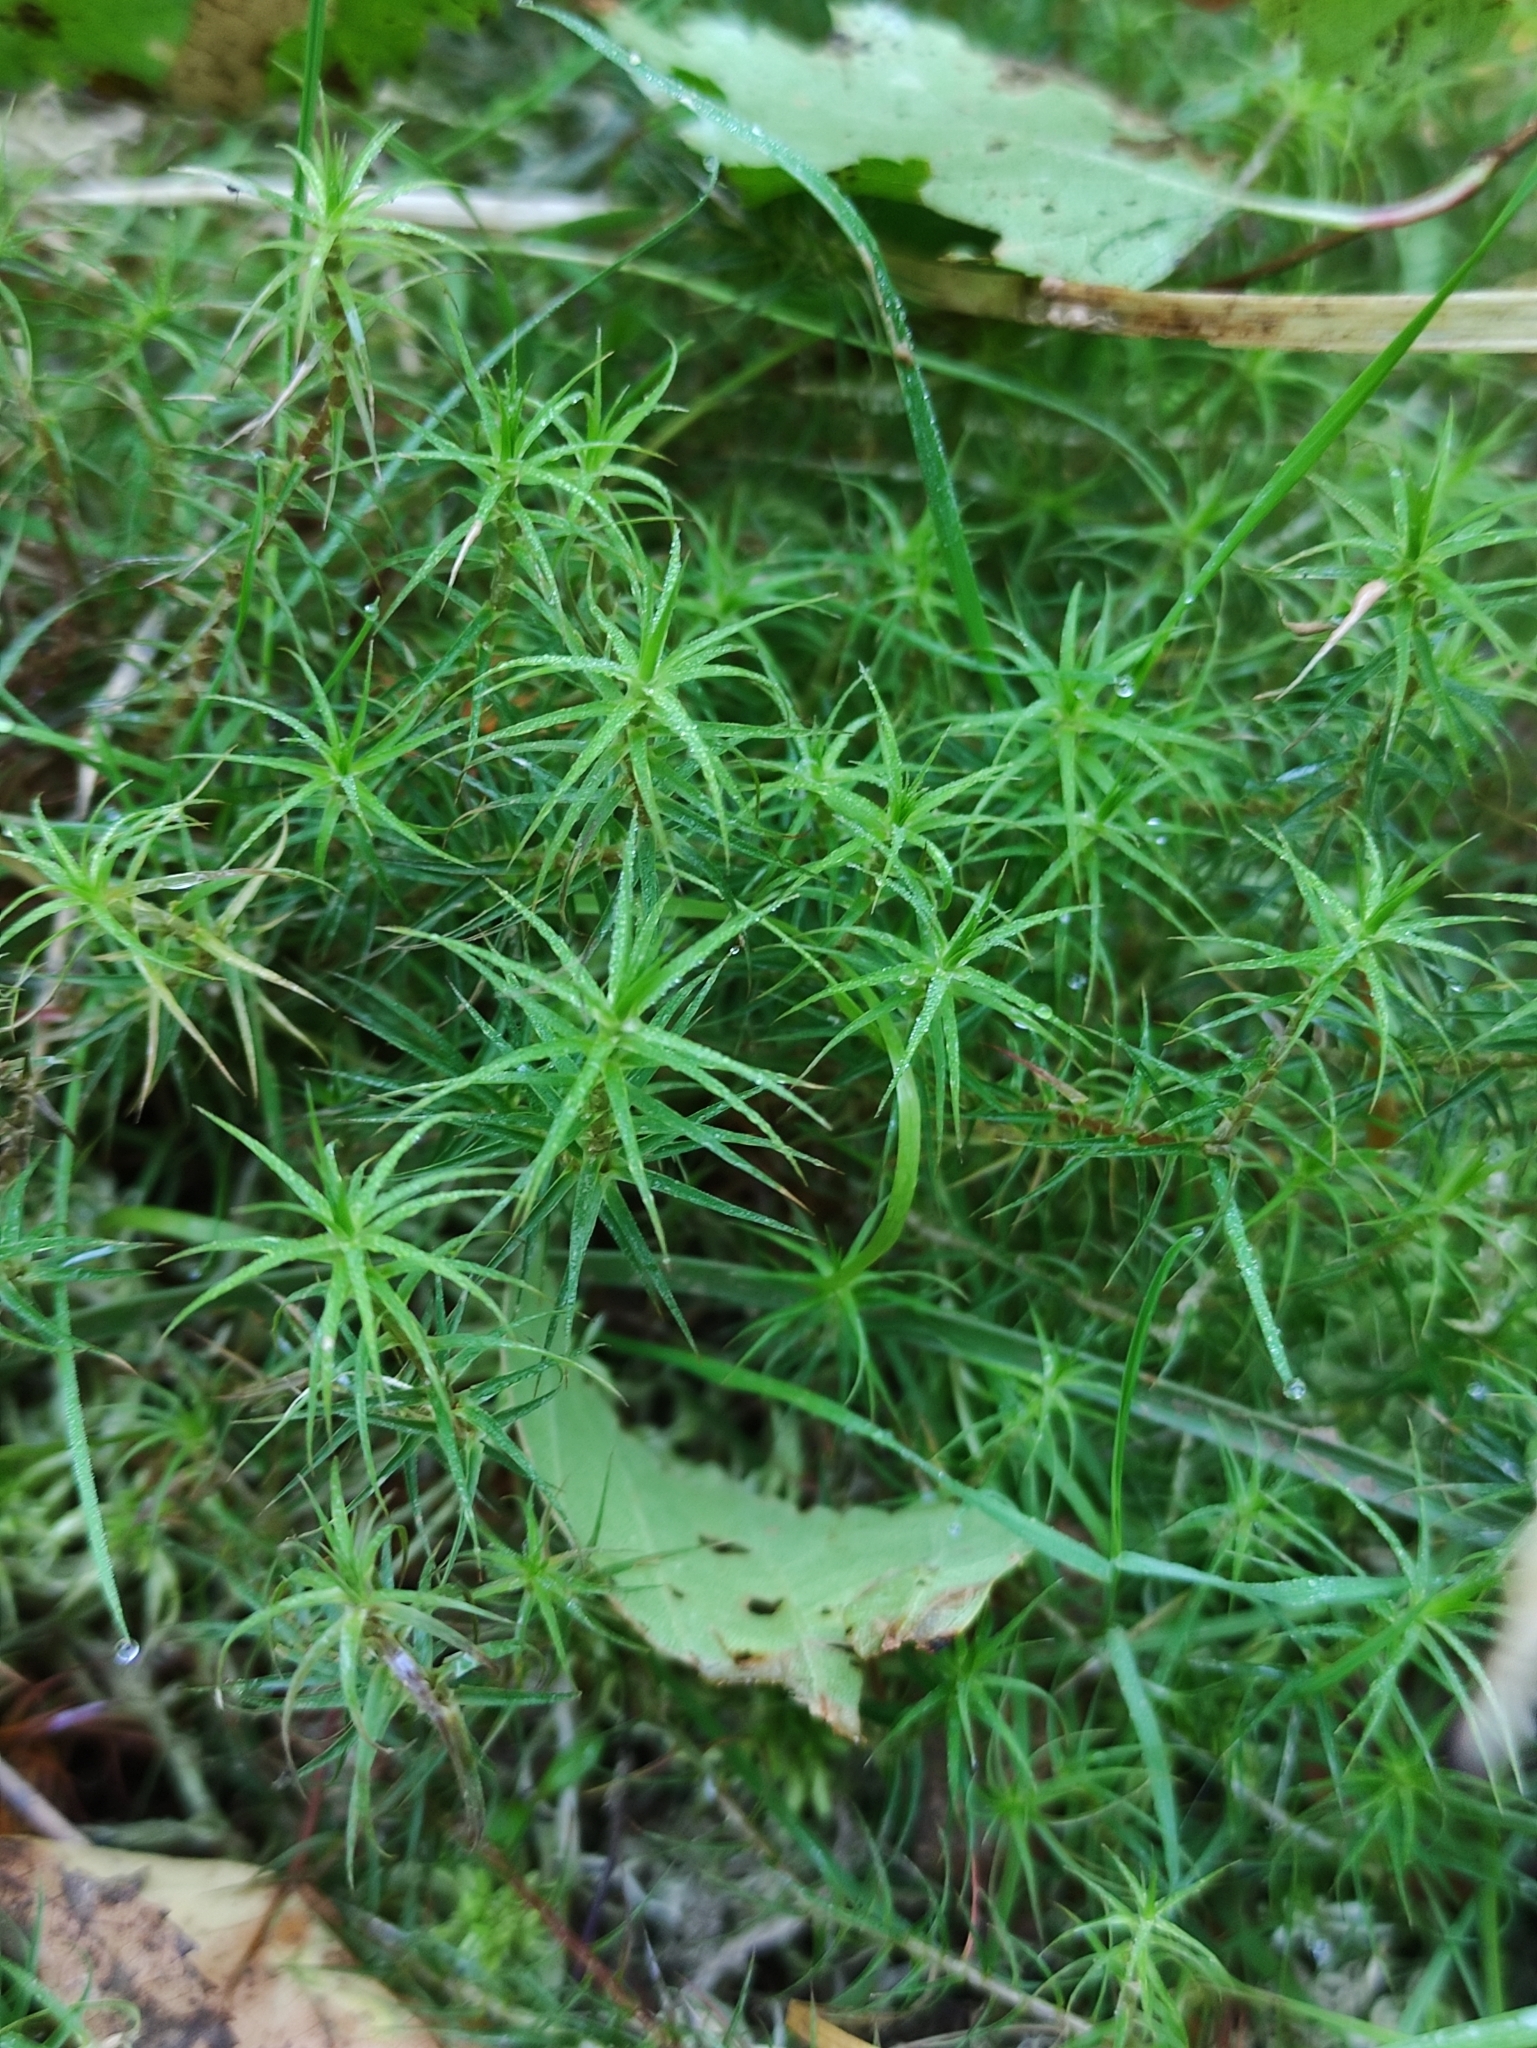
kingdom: Plantae
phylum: Bryophyta
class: Polytrichopsida
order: Polytrichales
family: Polytrichaceae
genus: Polytrichum
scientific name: Polytrichum commune
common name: Common haircap
